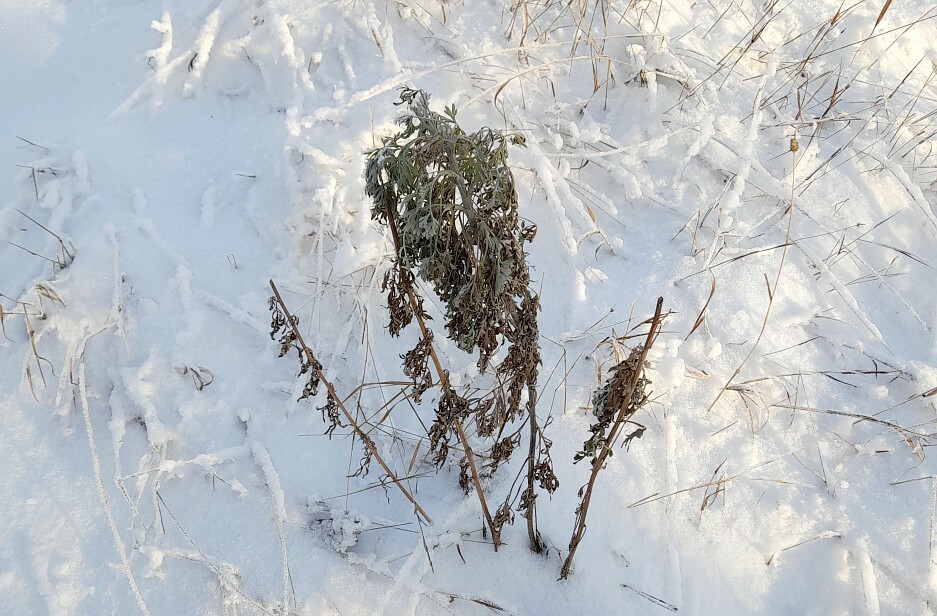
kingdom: Plantae
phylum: Tracheophyta
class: Magnoliopsida
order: Asterales
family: Asteraceae
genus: Artemisia
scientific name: Artemisia absinthium
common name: Wormwood
